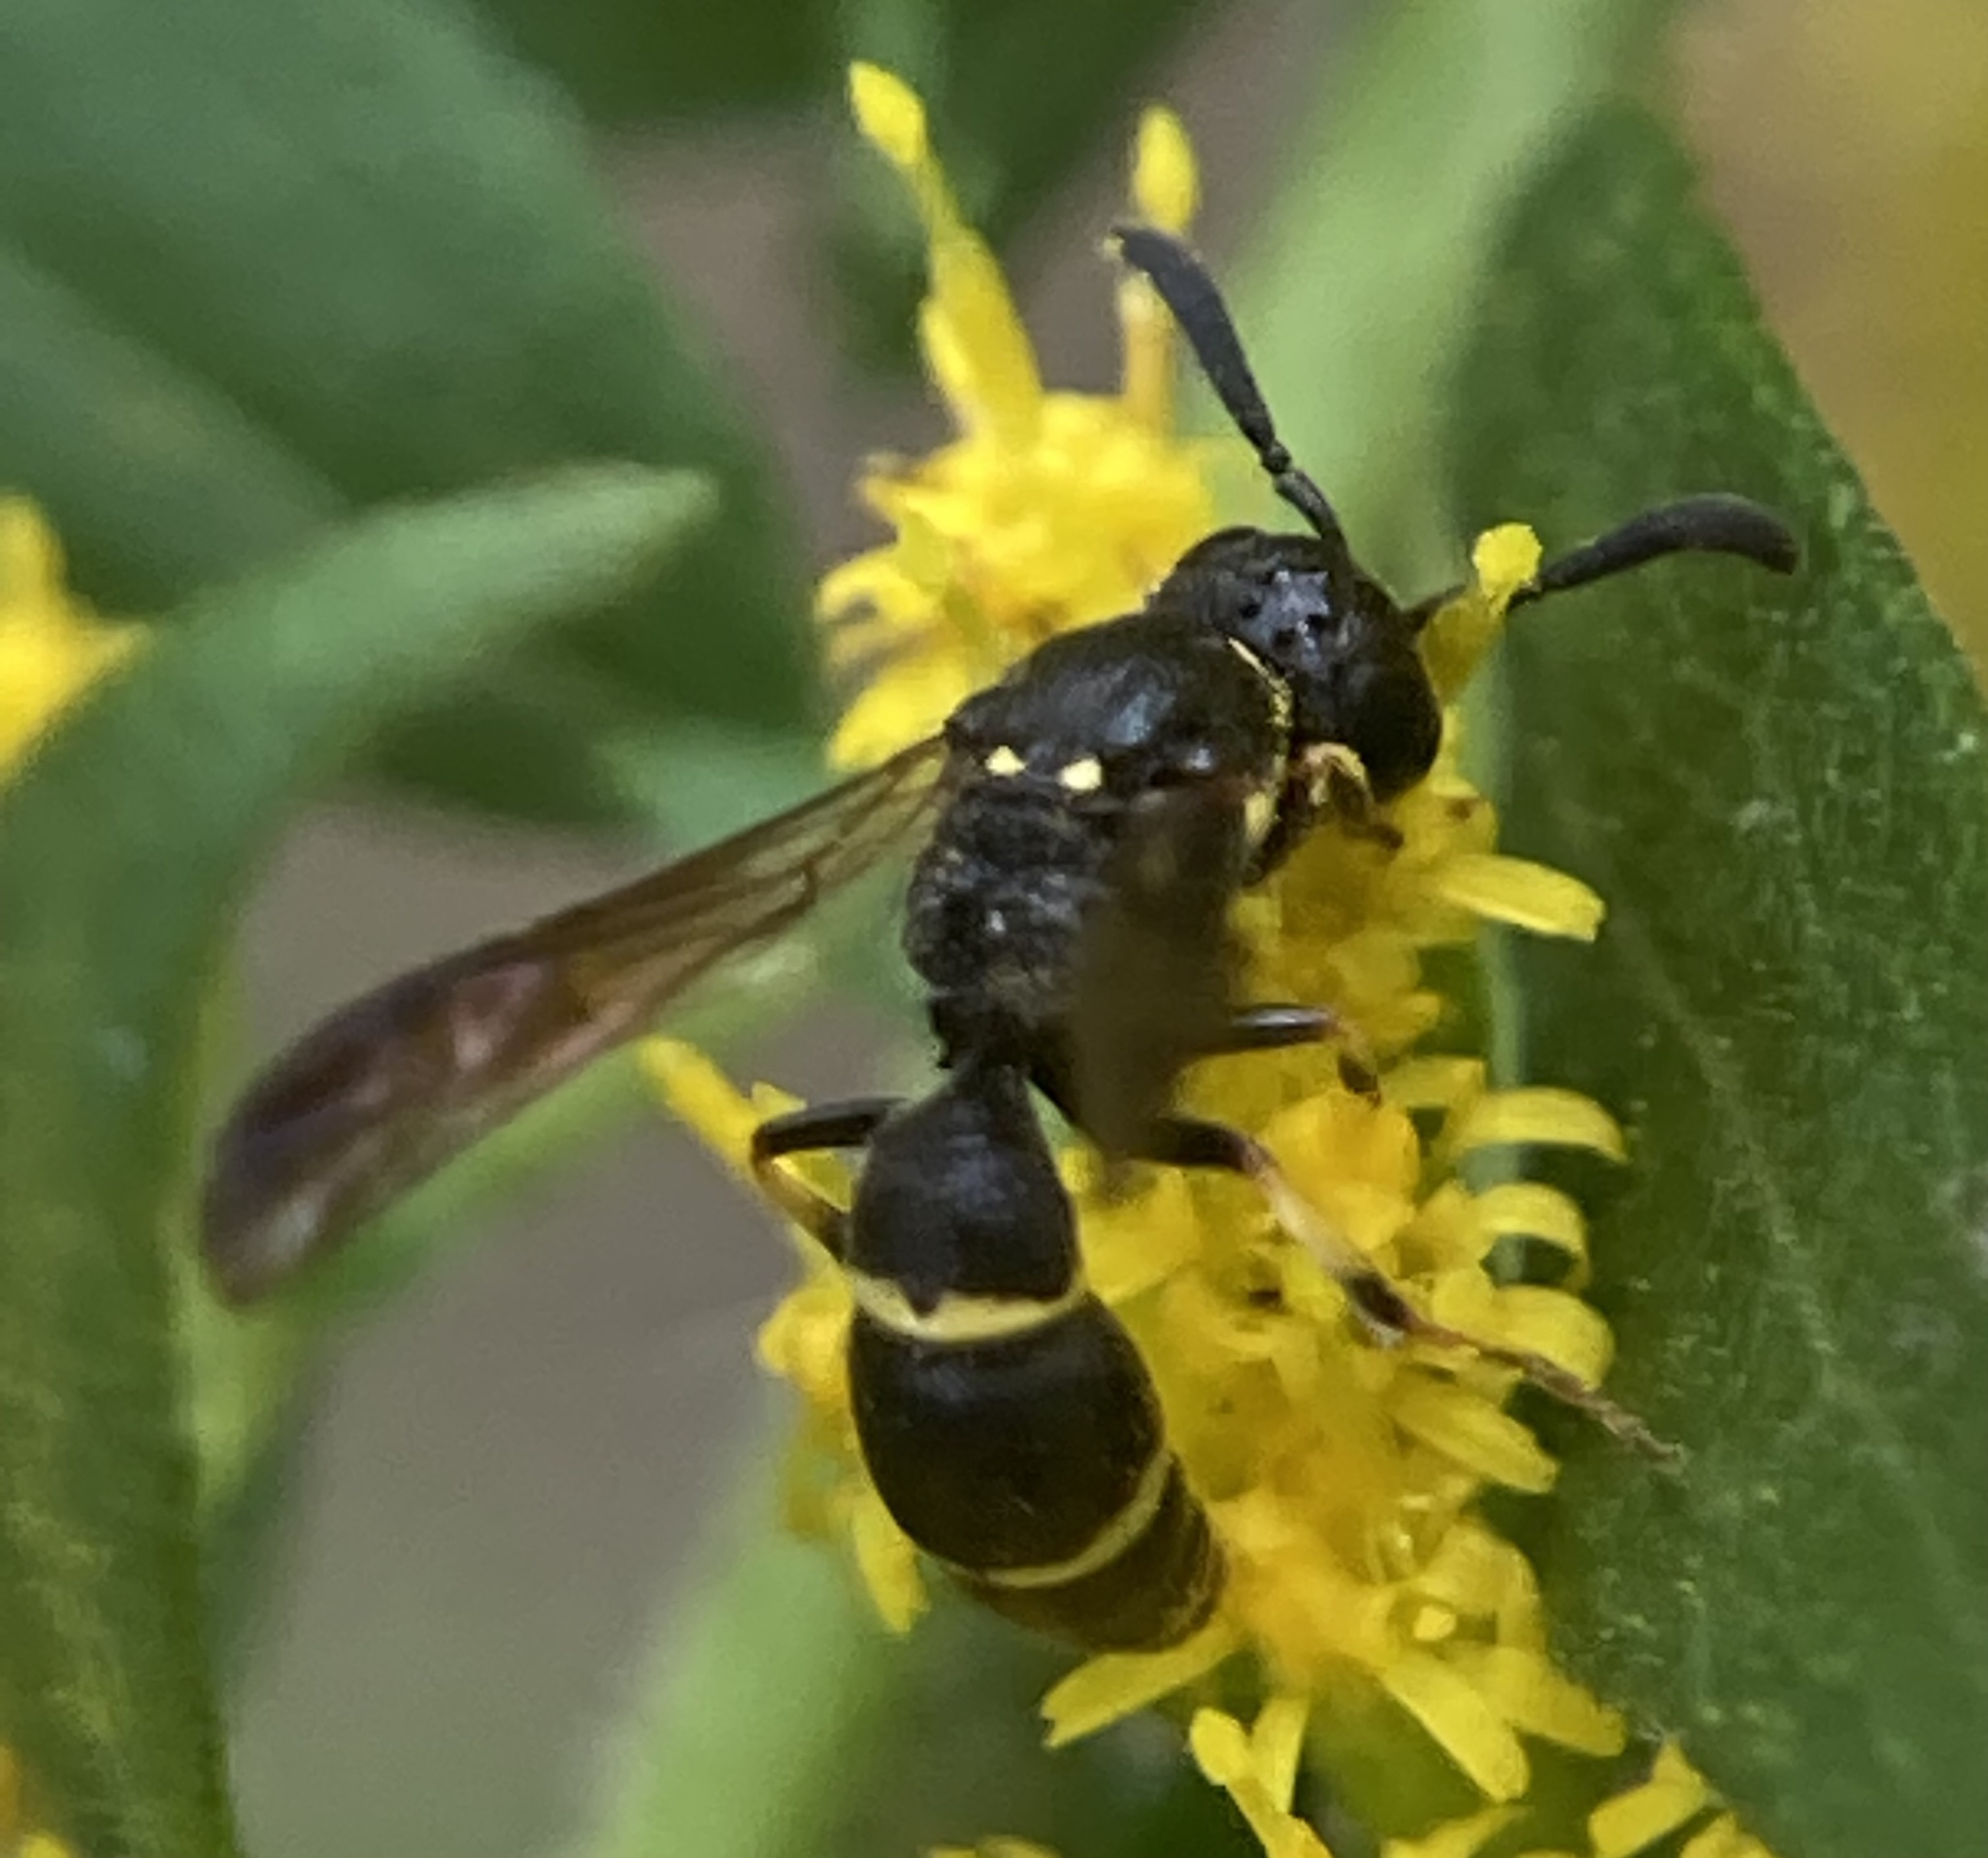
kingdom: Animalia
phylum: Arthropoda
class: Insecta
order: Hymenoptera
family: Eumenidae
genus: Symmorphus
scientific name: Symmorphus canadensis
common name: Canadian potter wasp
